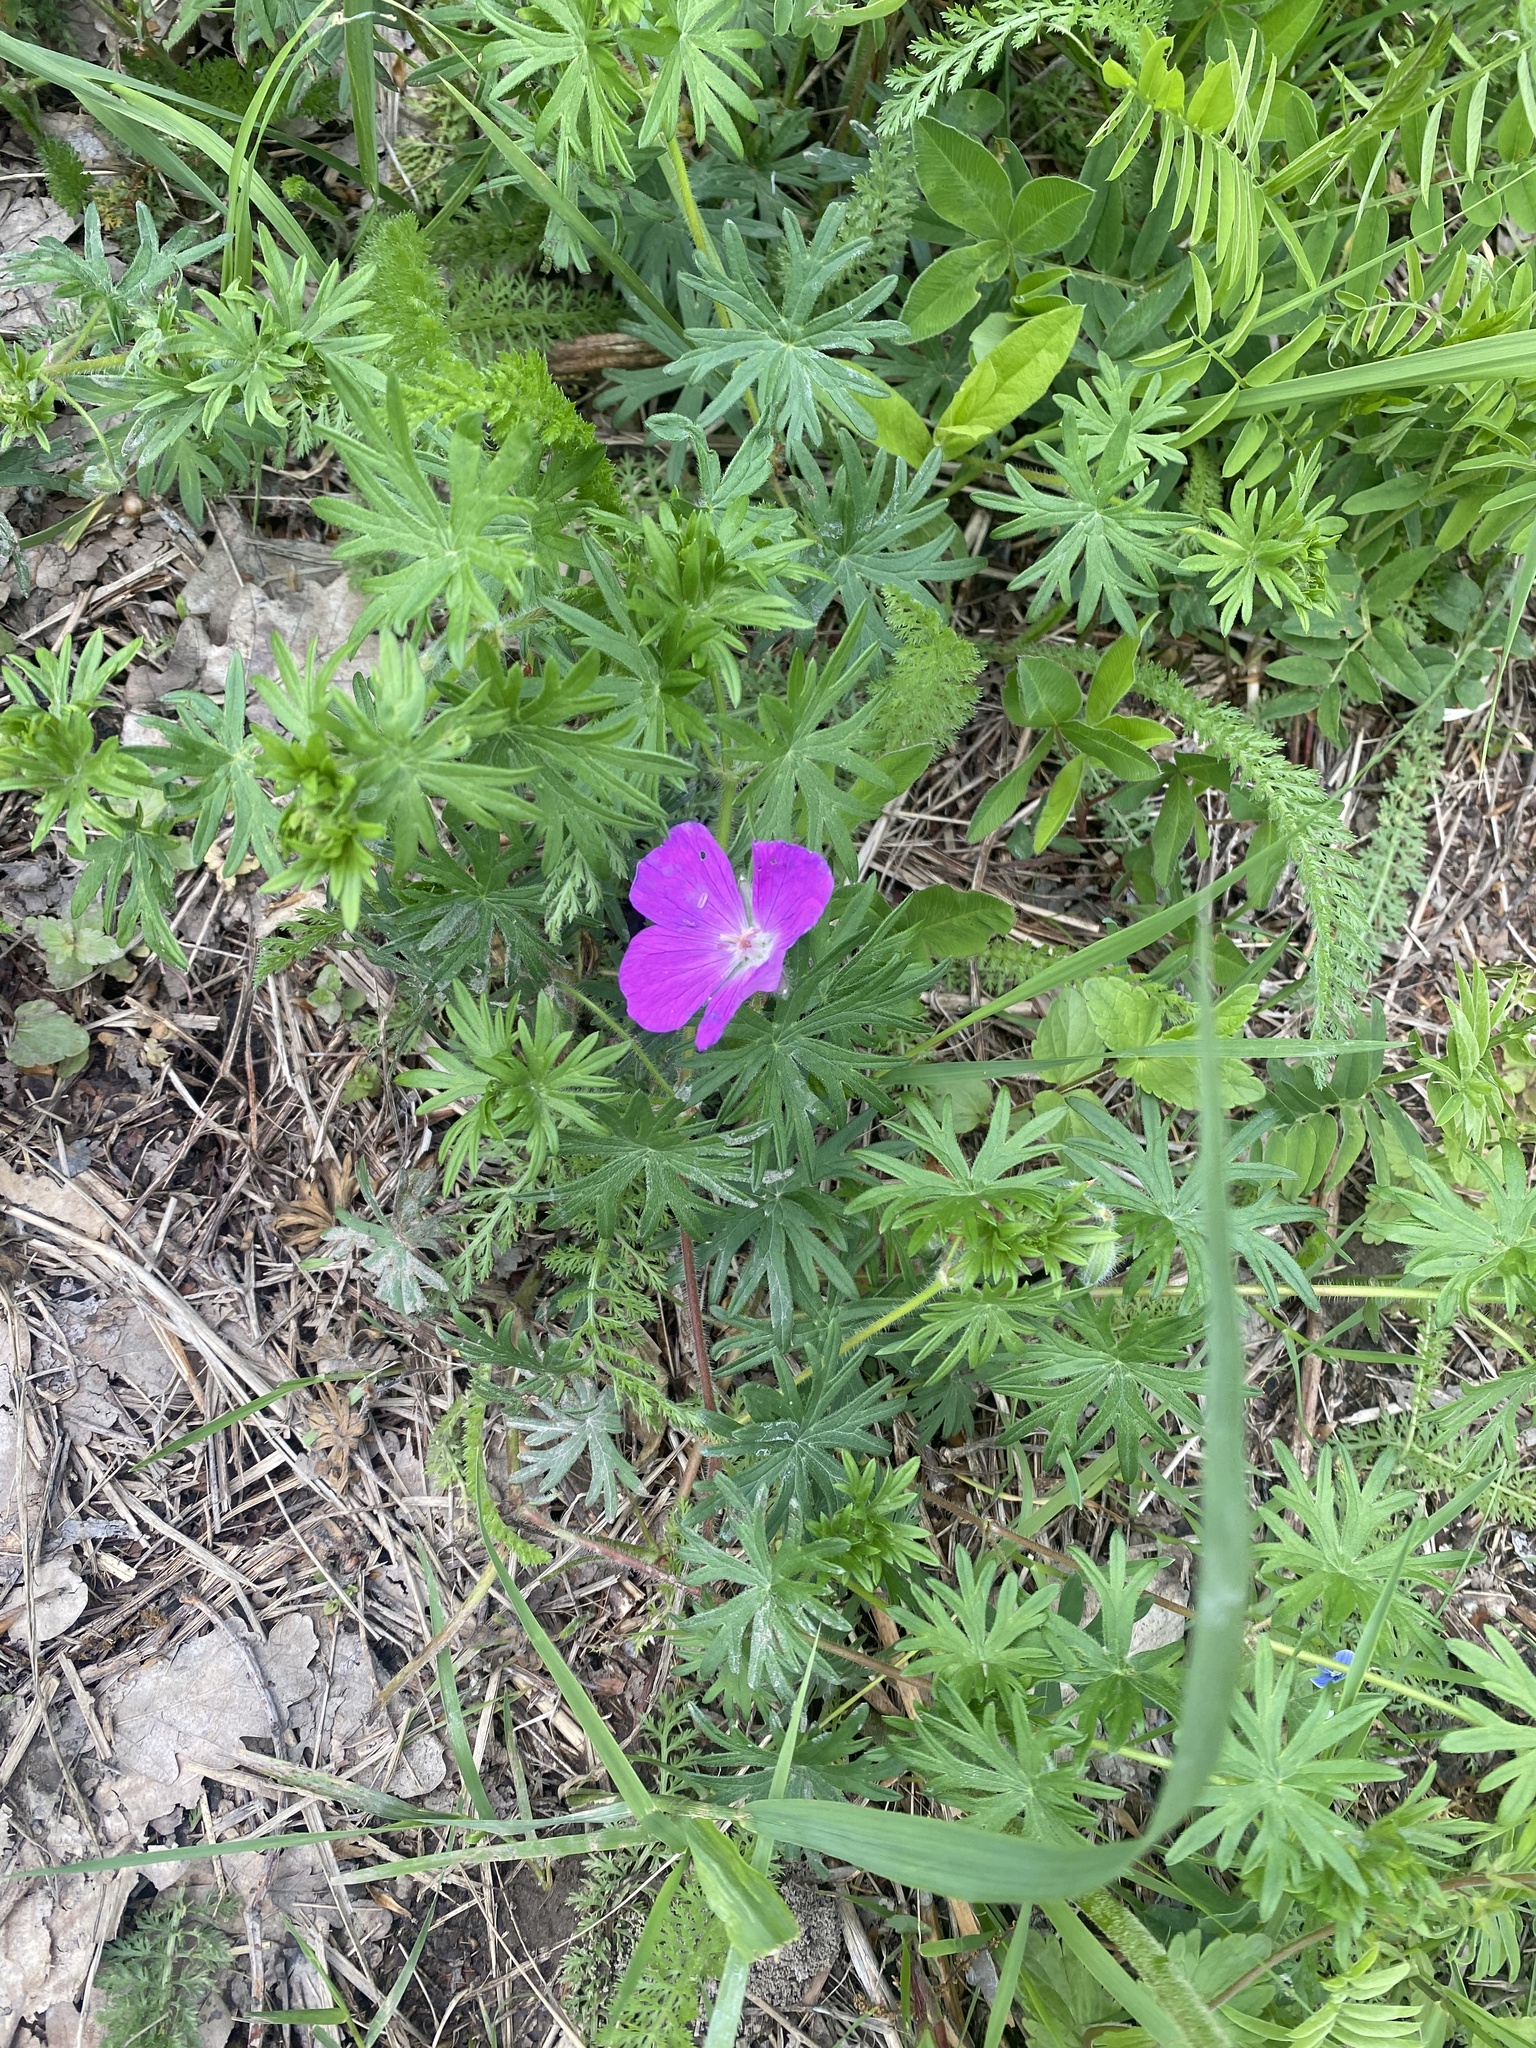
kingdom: Plantae
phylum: Tracheophyta
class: Magnoliopsida
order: Geraniales
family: Geraniaceae
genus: Geranium
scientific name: Geranium sanguineum
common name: Bloody crane's-bill
